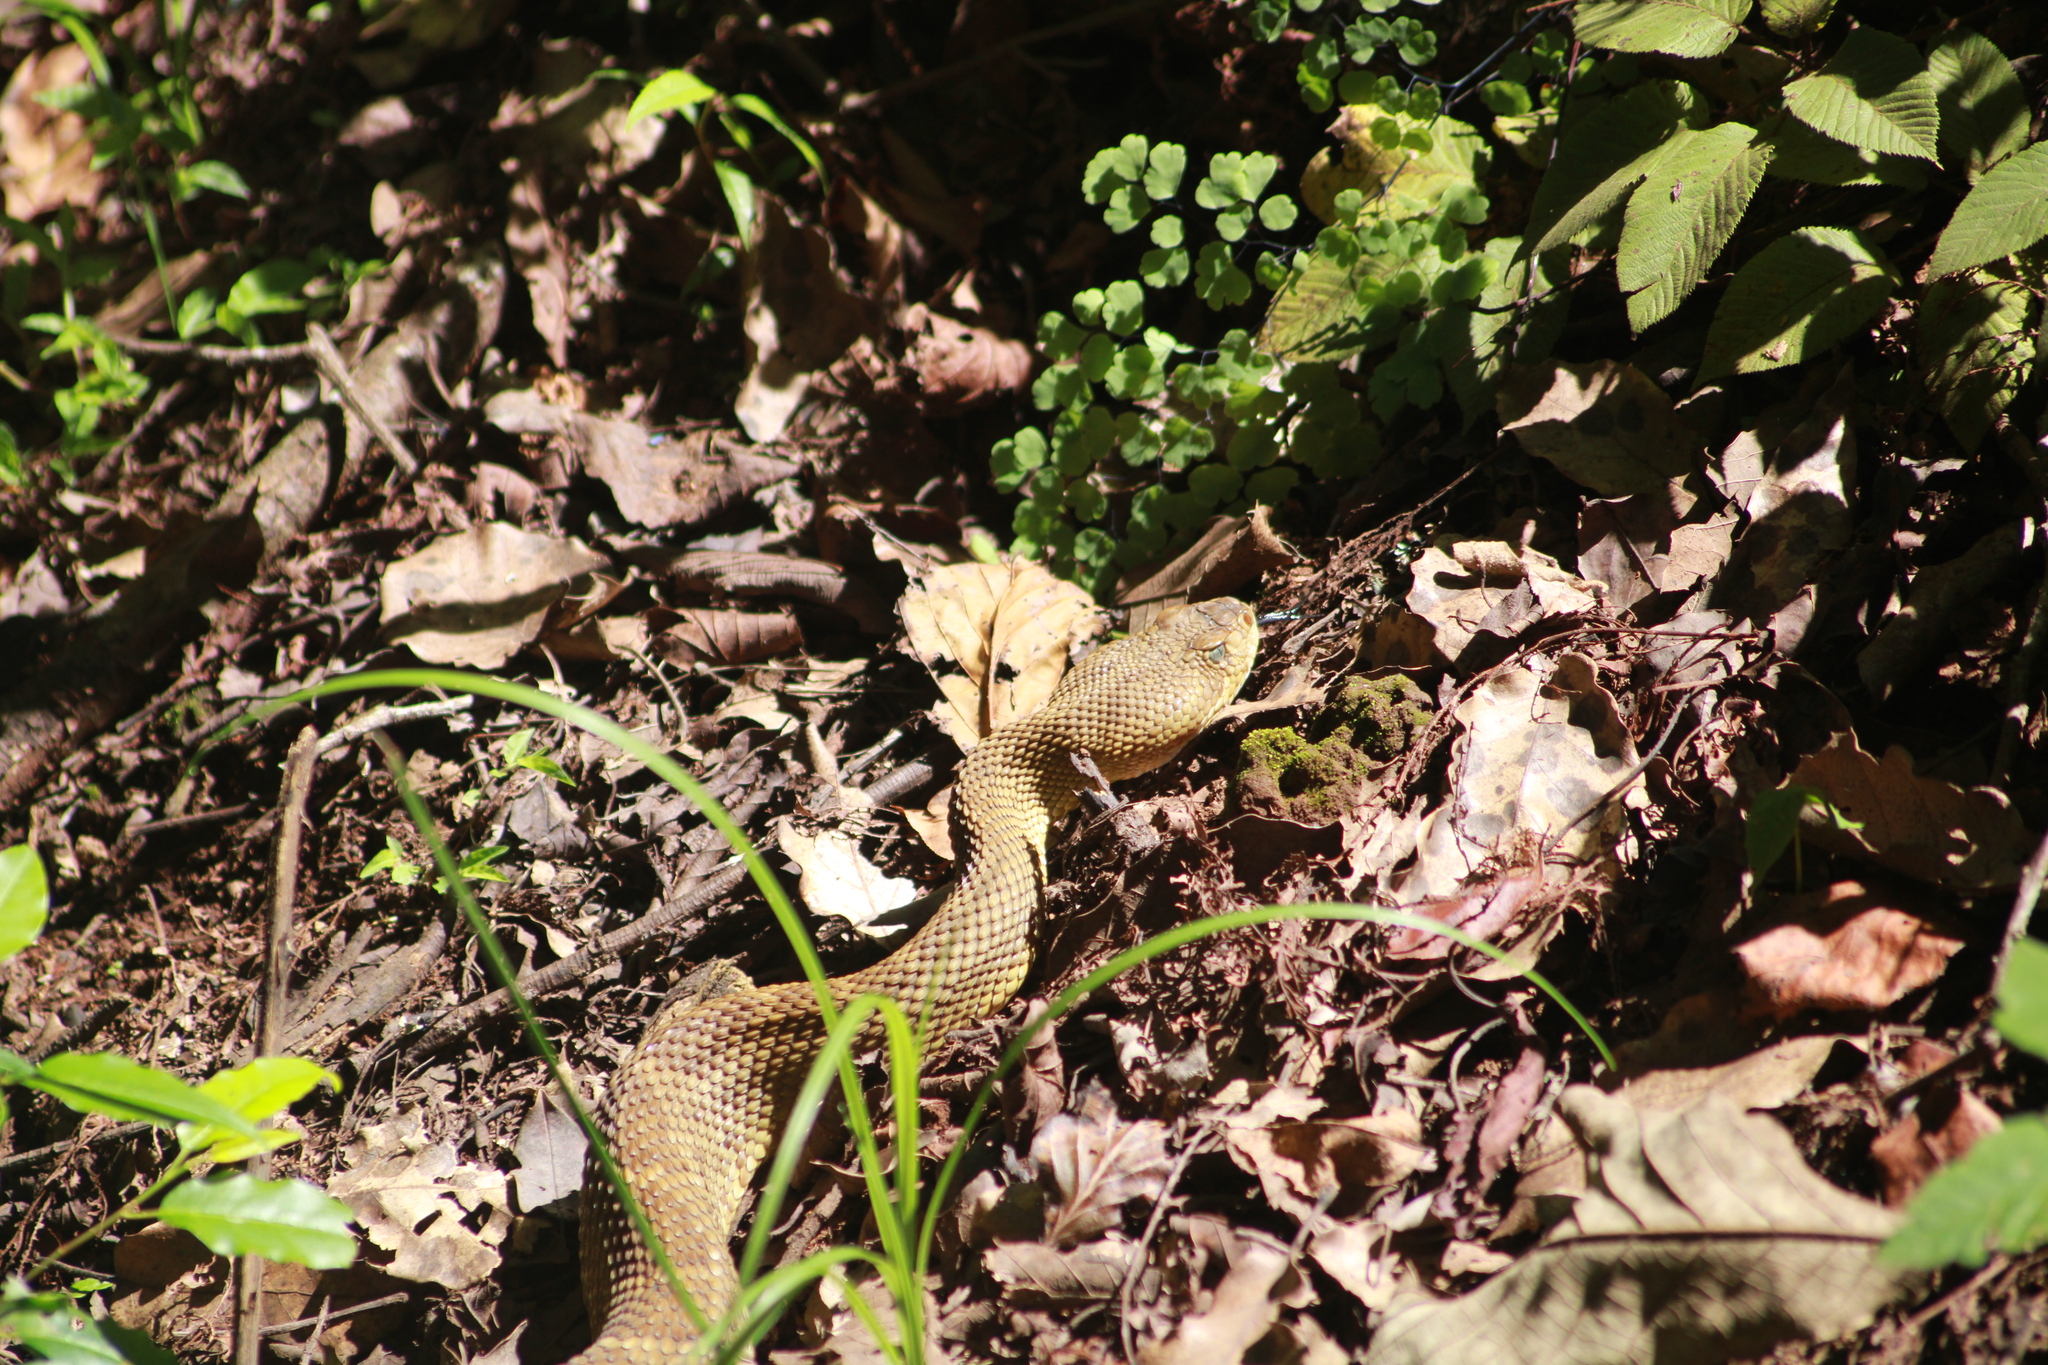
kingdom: Animalia
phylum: Chordata
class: Squamata
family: Viperidae
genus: Crotalus
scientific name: Crotalus basiliscus
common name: Basilisk rattlesnake
